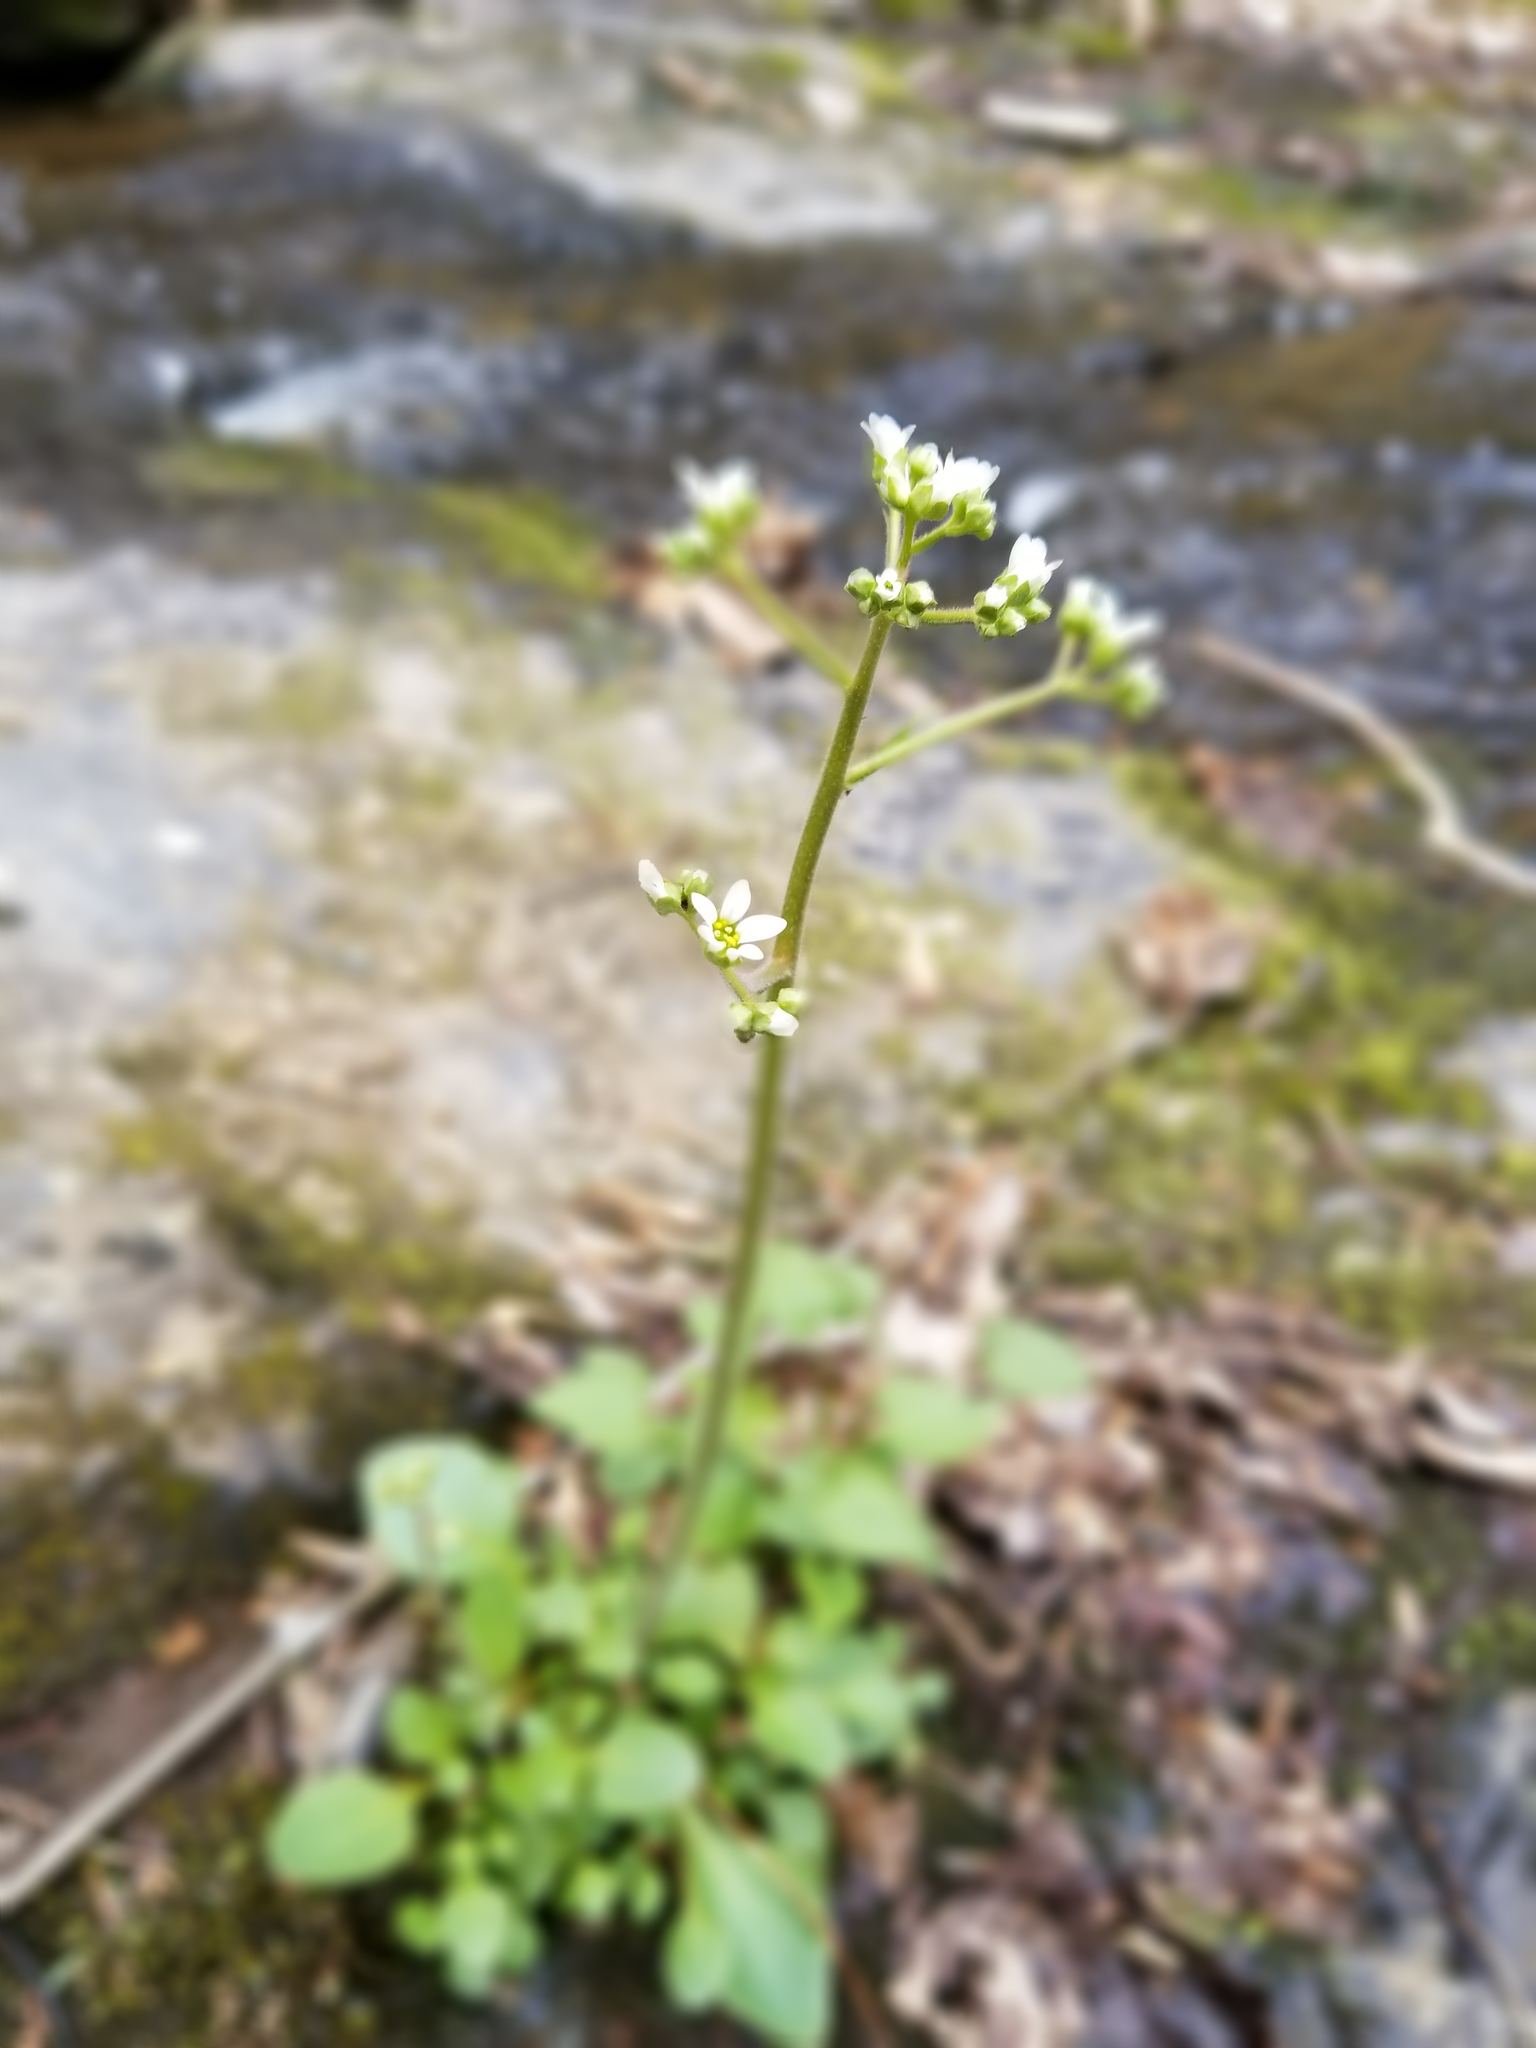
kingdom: Plantae
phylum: Tracheophyta
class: Magnoliopsida
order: Saxifragales
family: Saxifragaceae
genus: Micranthes
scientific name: Micranthes virginiensis
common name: Early saxifrage
